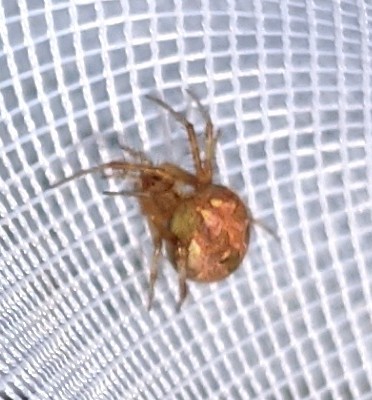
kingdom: Animalia
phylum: Arthropoda
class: Arachnida
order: Araneae
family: Araneidae
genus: Neoscona
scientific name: Neoscona arabesca
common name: Orb weavers
